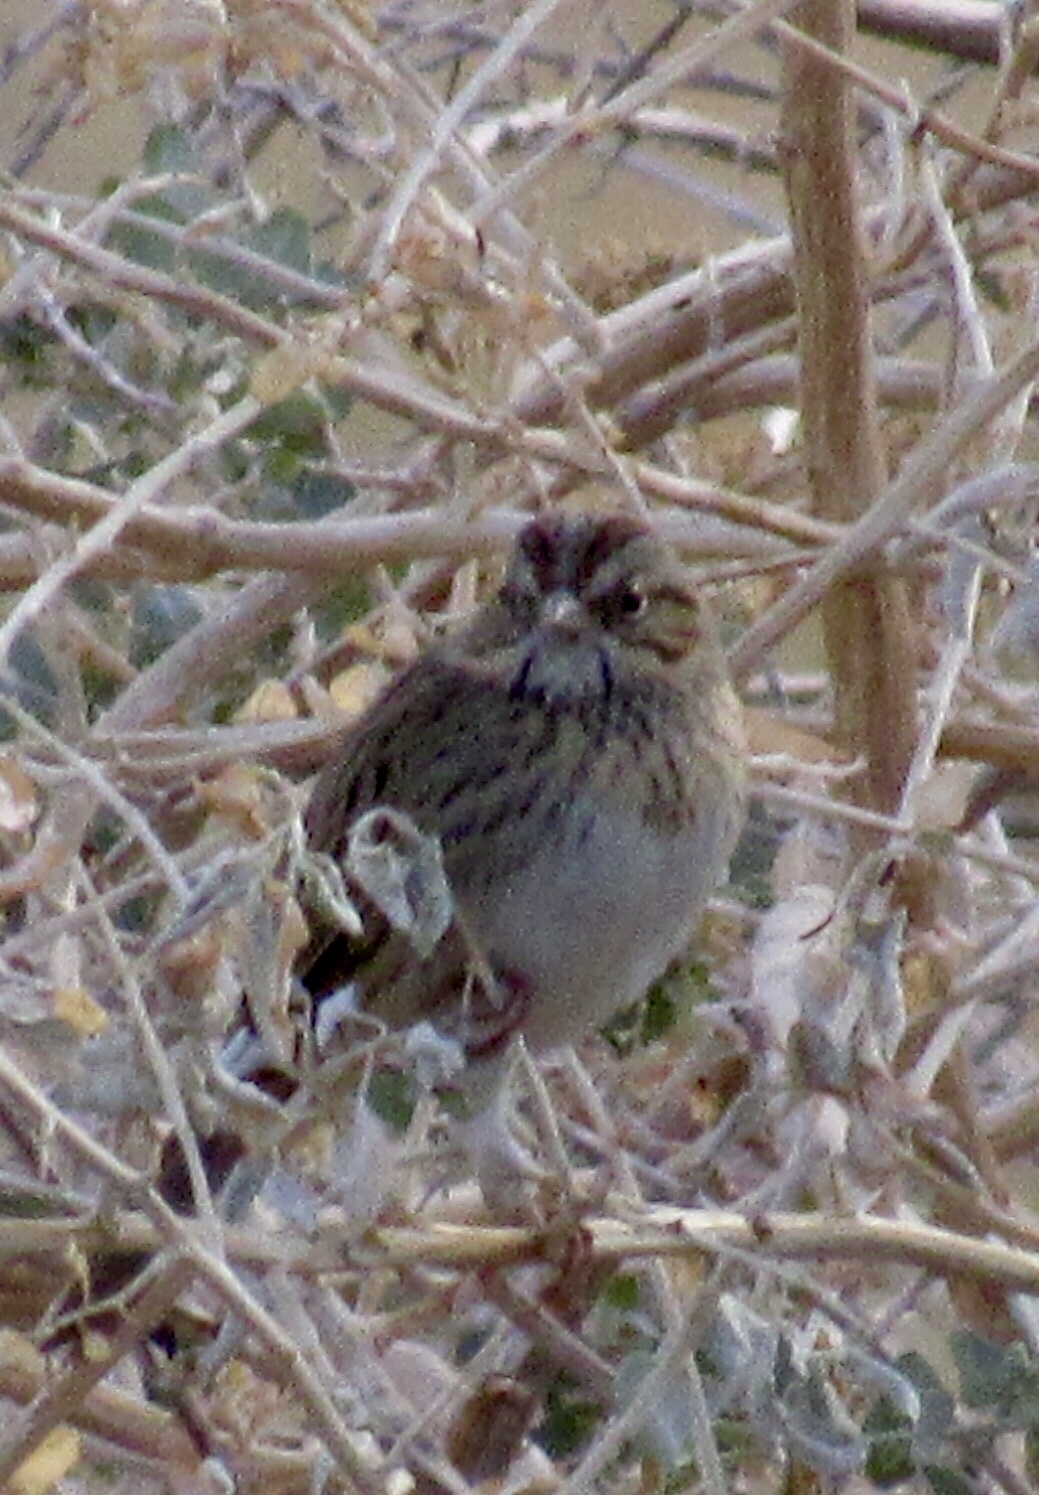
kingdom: Animalia
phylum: Chordata
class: Aves
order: Passeriformes
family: Passerellidae
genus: Melospiza
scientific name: Melospiza lincolnii
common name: Lincoln's sparrow
